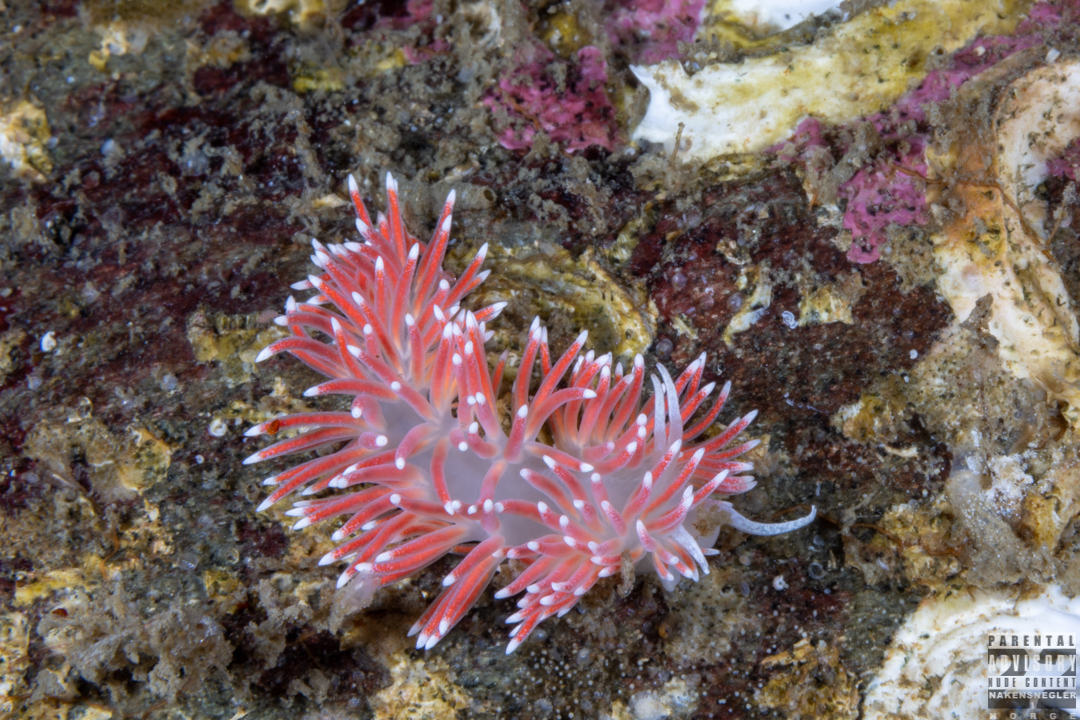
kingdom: Animalia
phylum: Mollusca
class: Gastropoda
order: Nudibranchia
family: Flabellinidae
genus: Carronella
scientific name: Carronella pellucida
